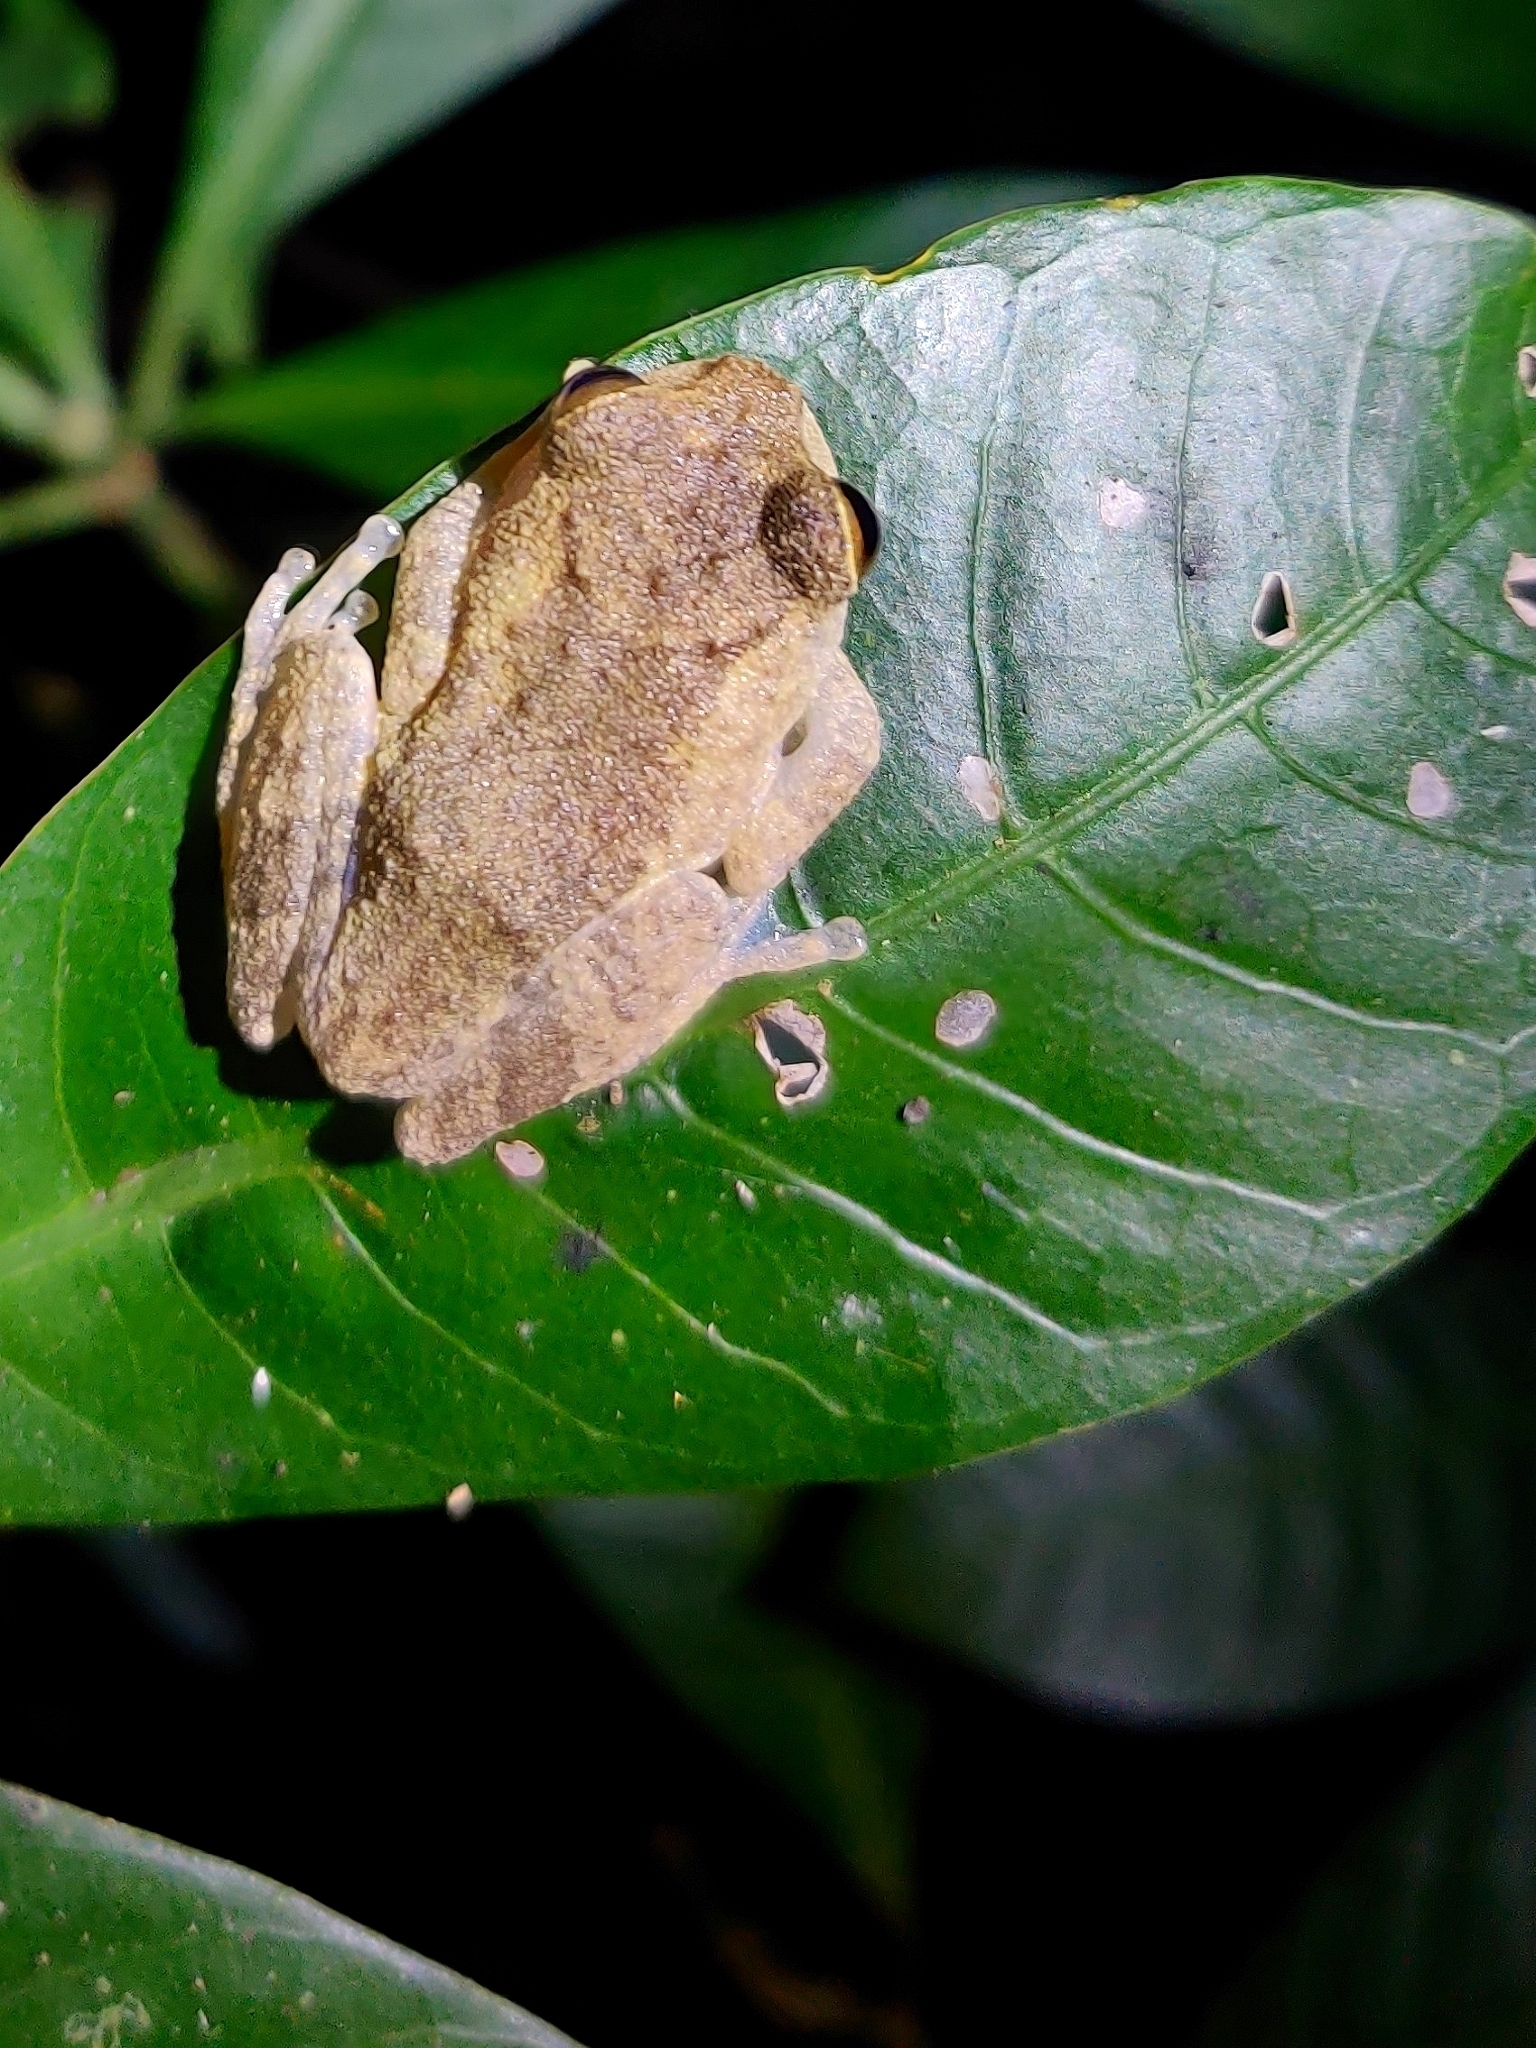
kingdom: Animalia
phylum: Chordata
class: Amphibia
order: Anura
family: Rhacophoridae
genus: Raorchestes
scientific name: Raorchestes hassanensis
